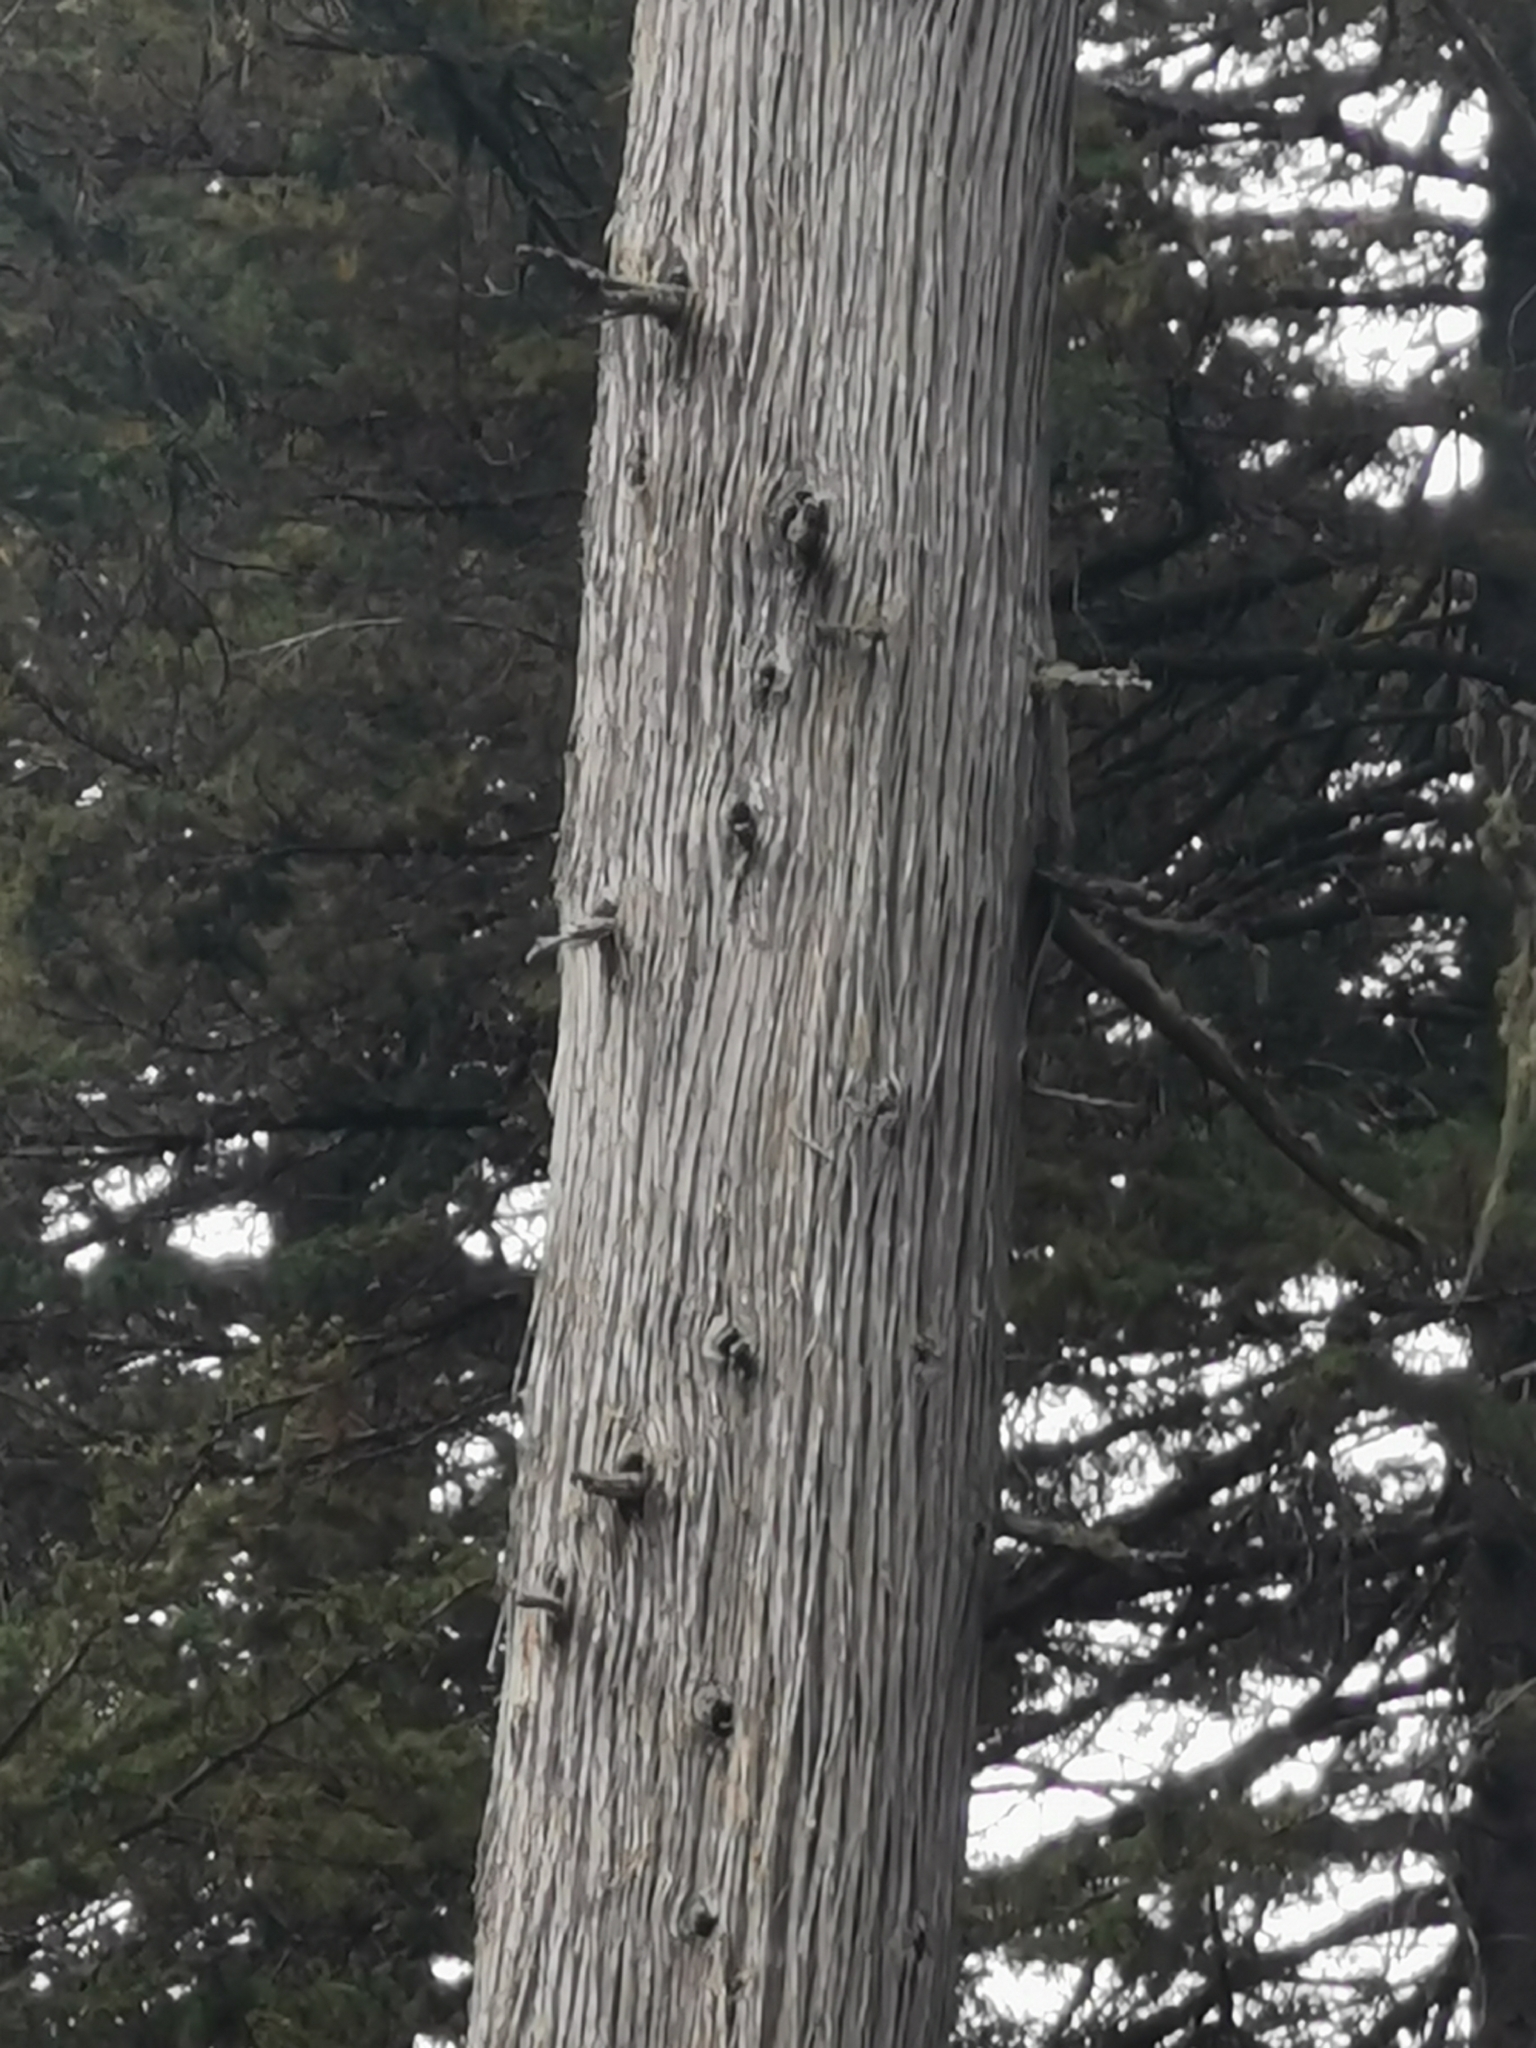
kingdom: Plantae
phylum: Tracheophyta
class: Pinopsida
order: Pinales
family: Cupressaceae
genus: Cupressus
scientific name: Cupressus lusitanica
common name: Mexican cypress
